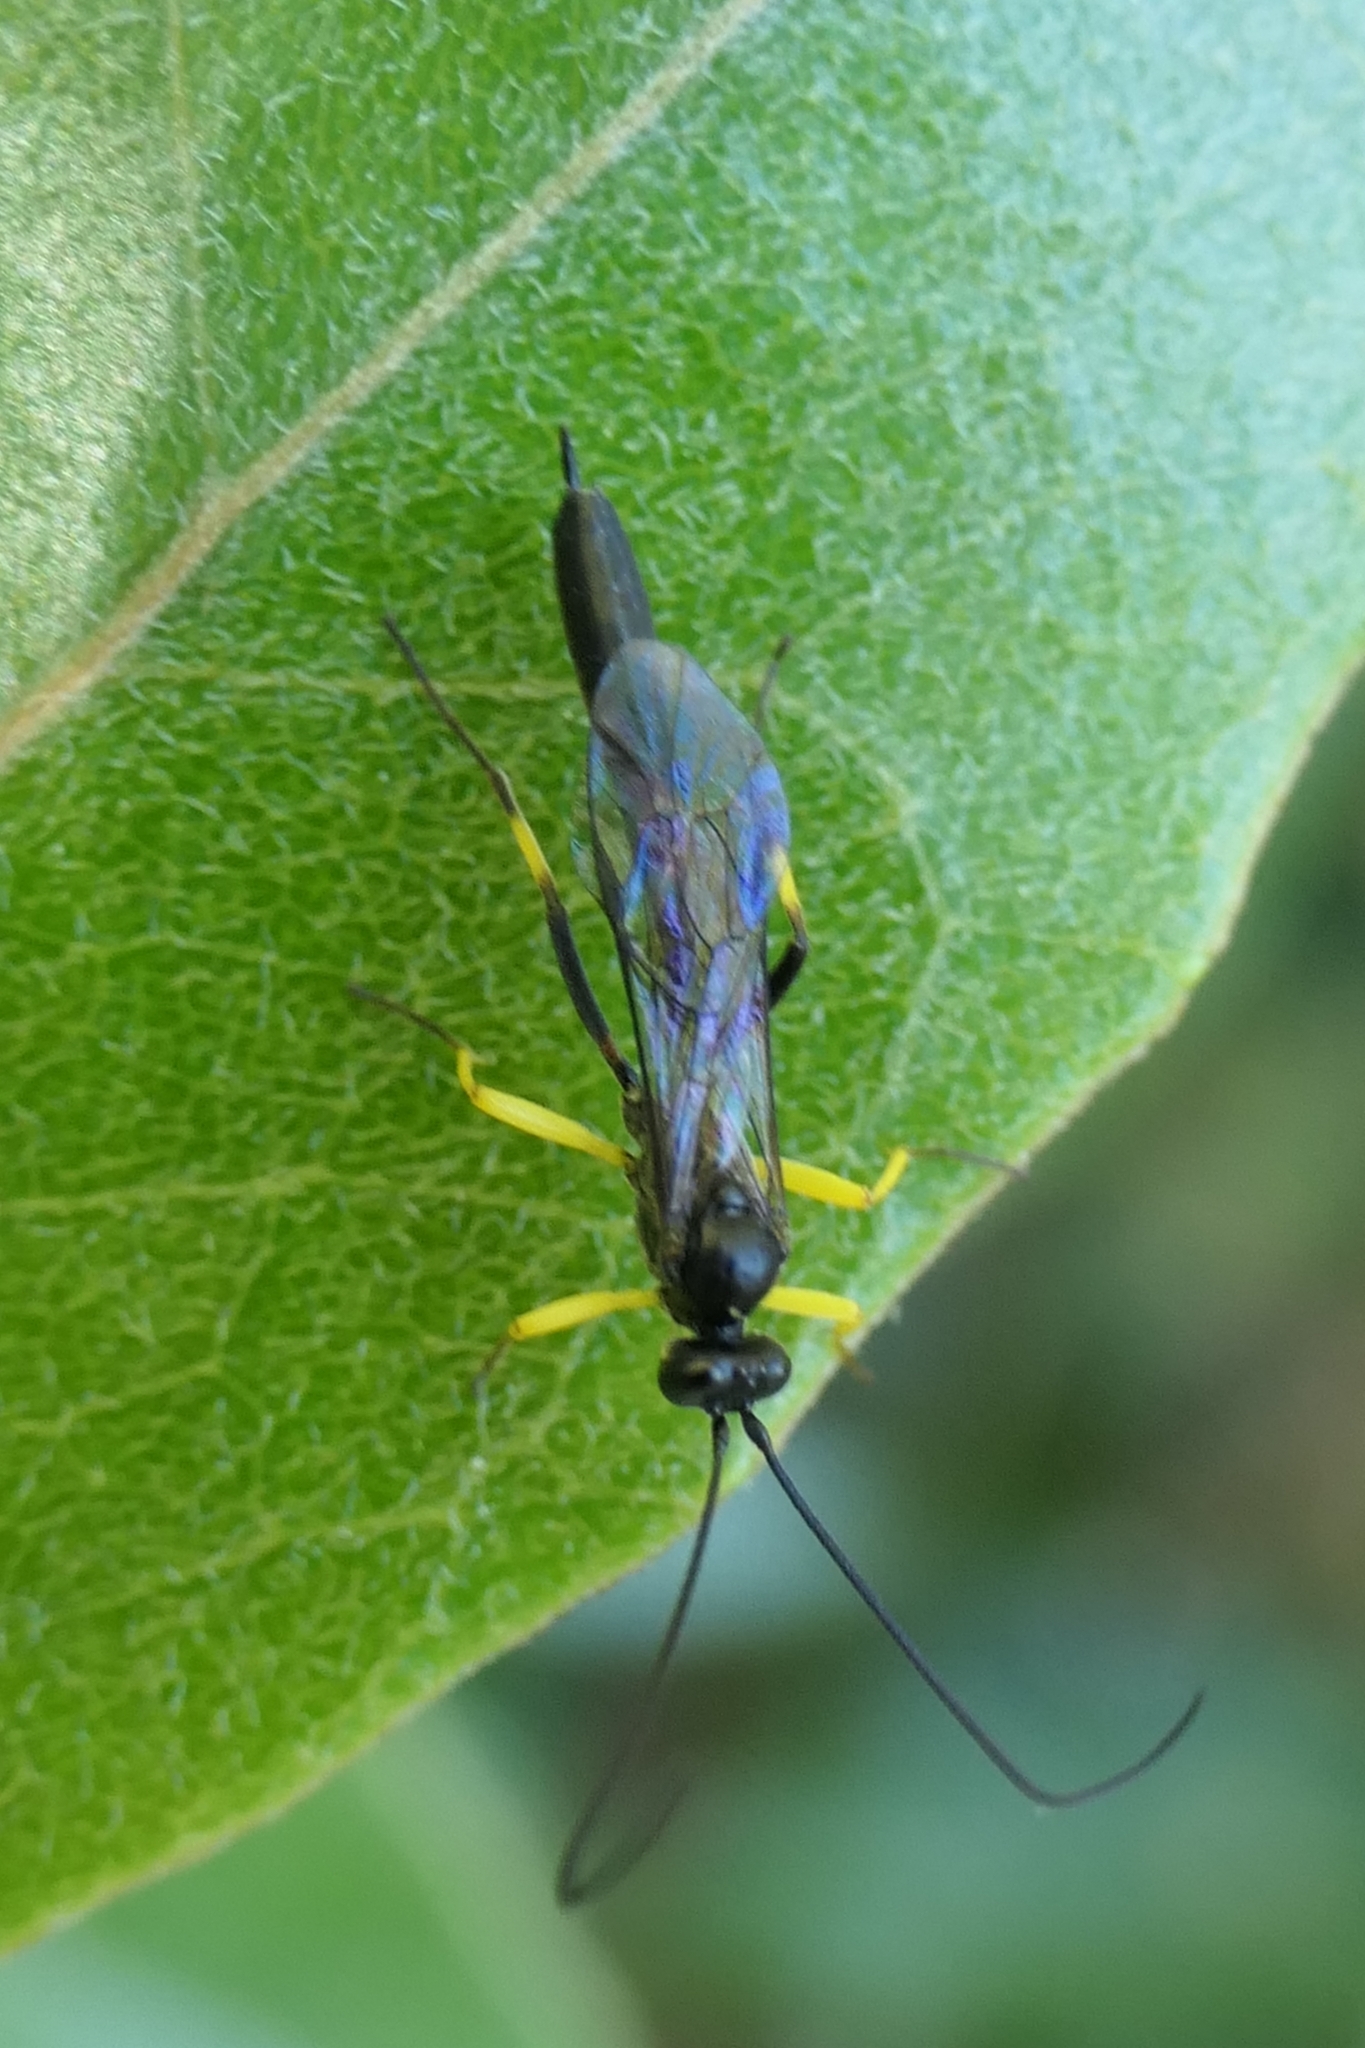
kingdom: Animalia
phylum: Arthropoda
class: Insecta
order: Hymenoptera
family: Ichneumonidae
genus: Dusona
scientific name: Dusona stramineipes
